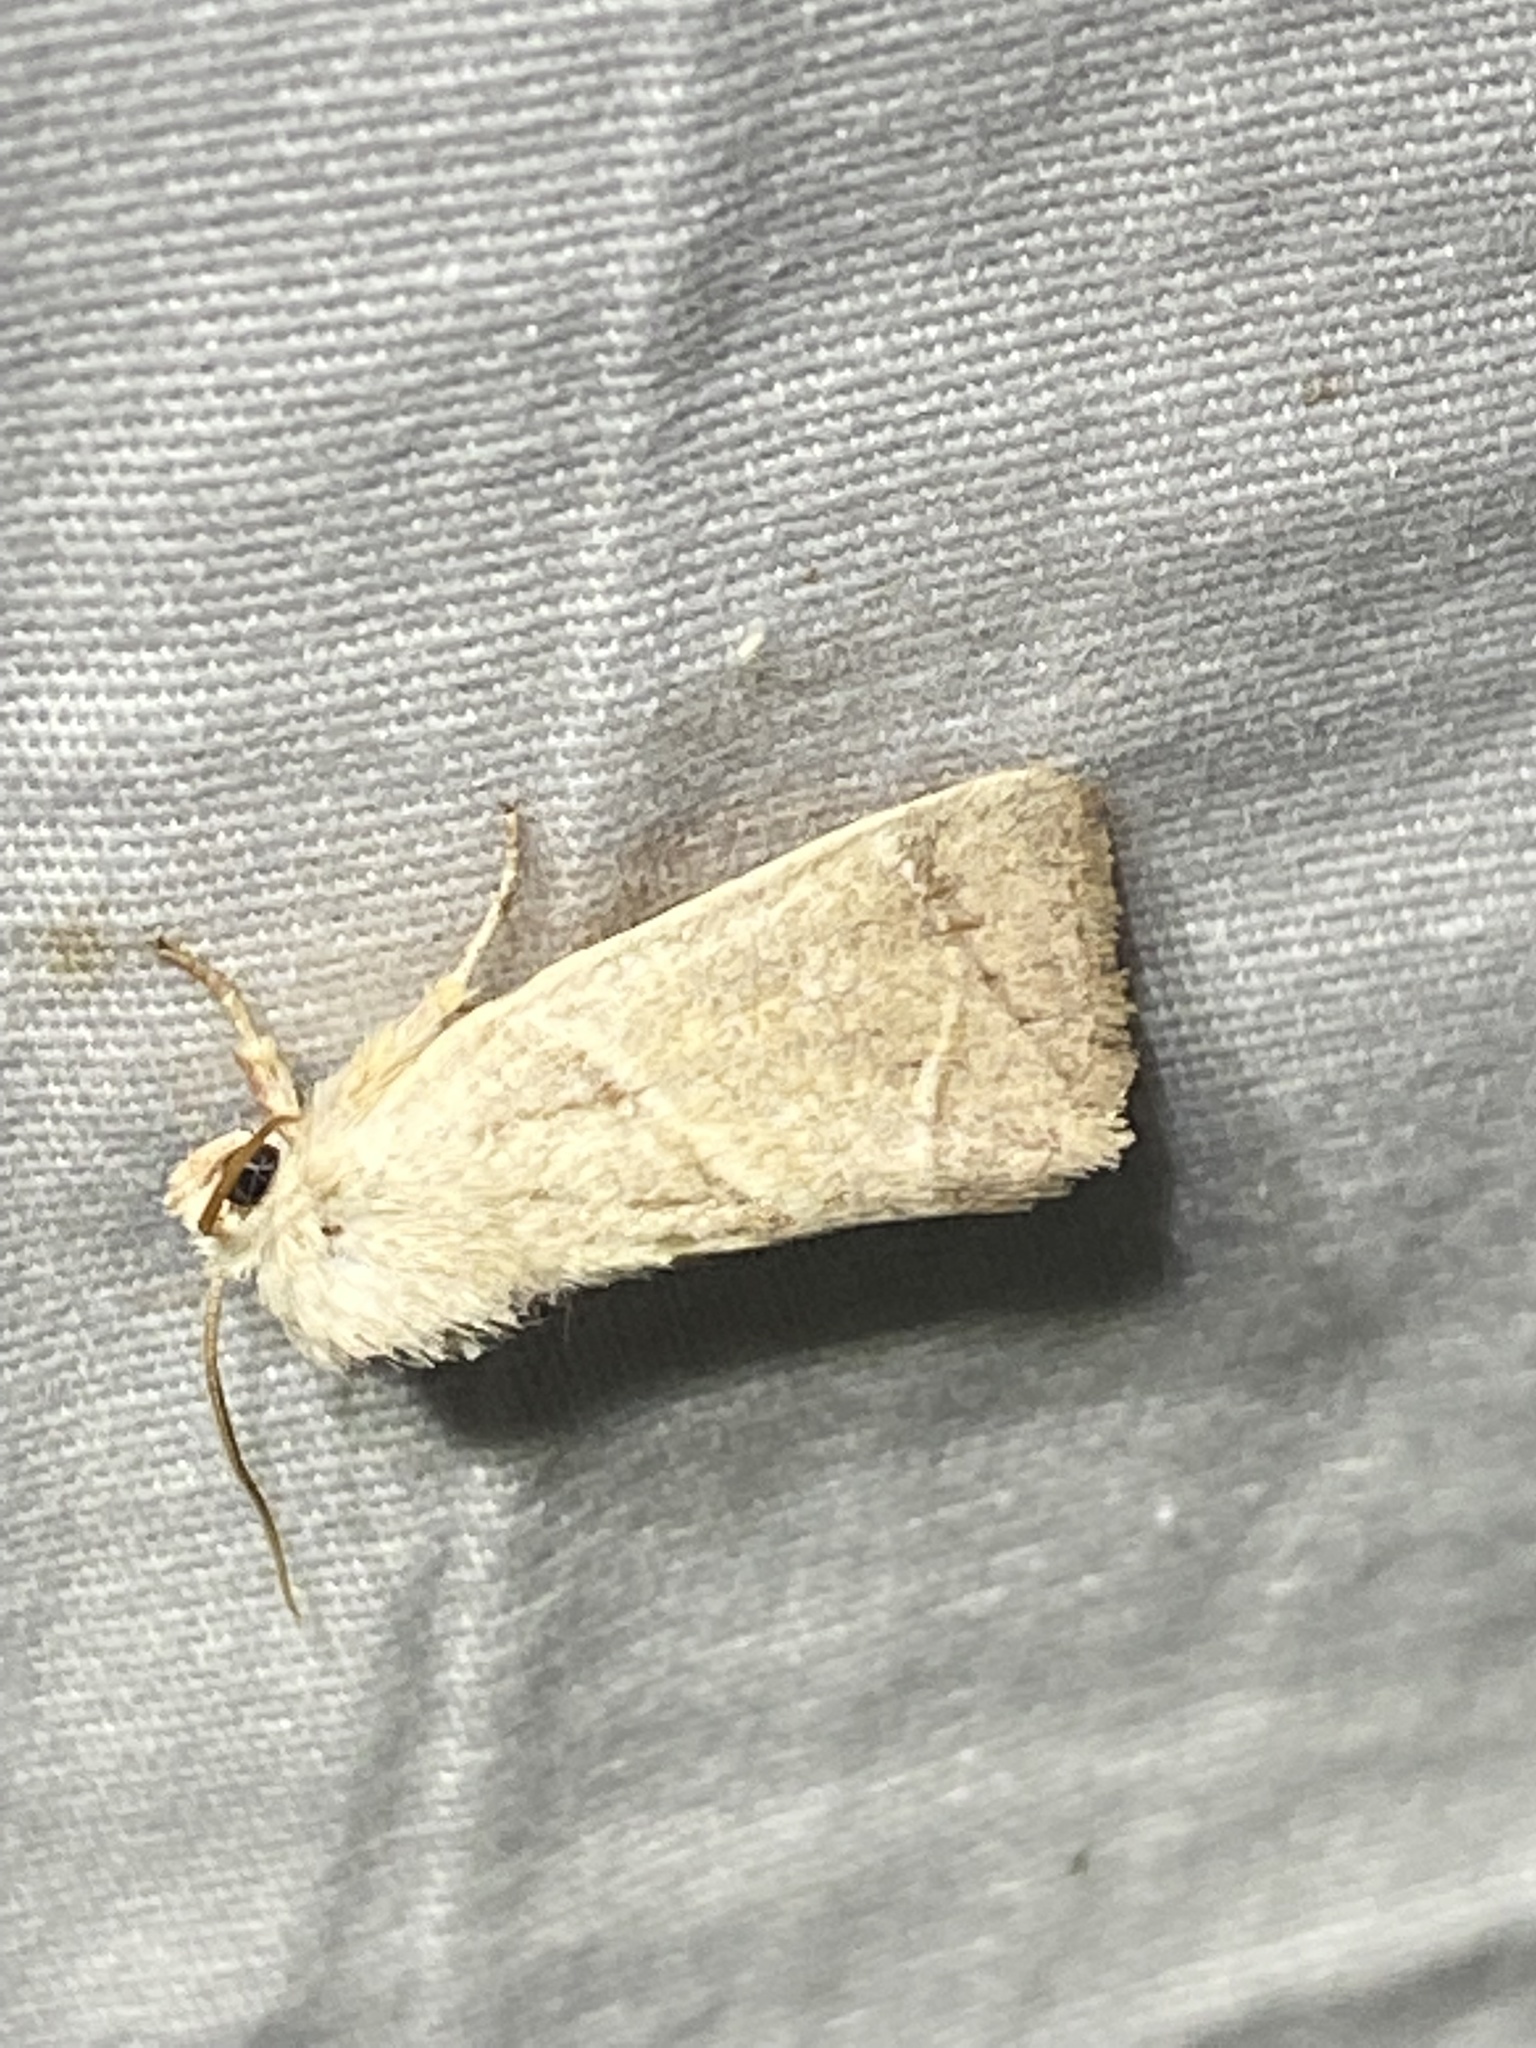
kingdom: Animalia
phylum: Arthropoda
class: Insecta
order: Lepidoptera
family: Noctuidae
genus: Cosmia
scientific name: Cosmia calami
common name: American dun-bar moth
